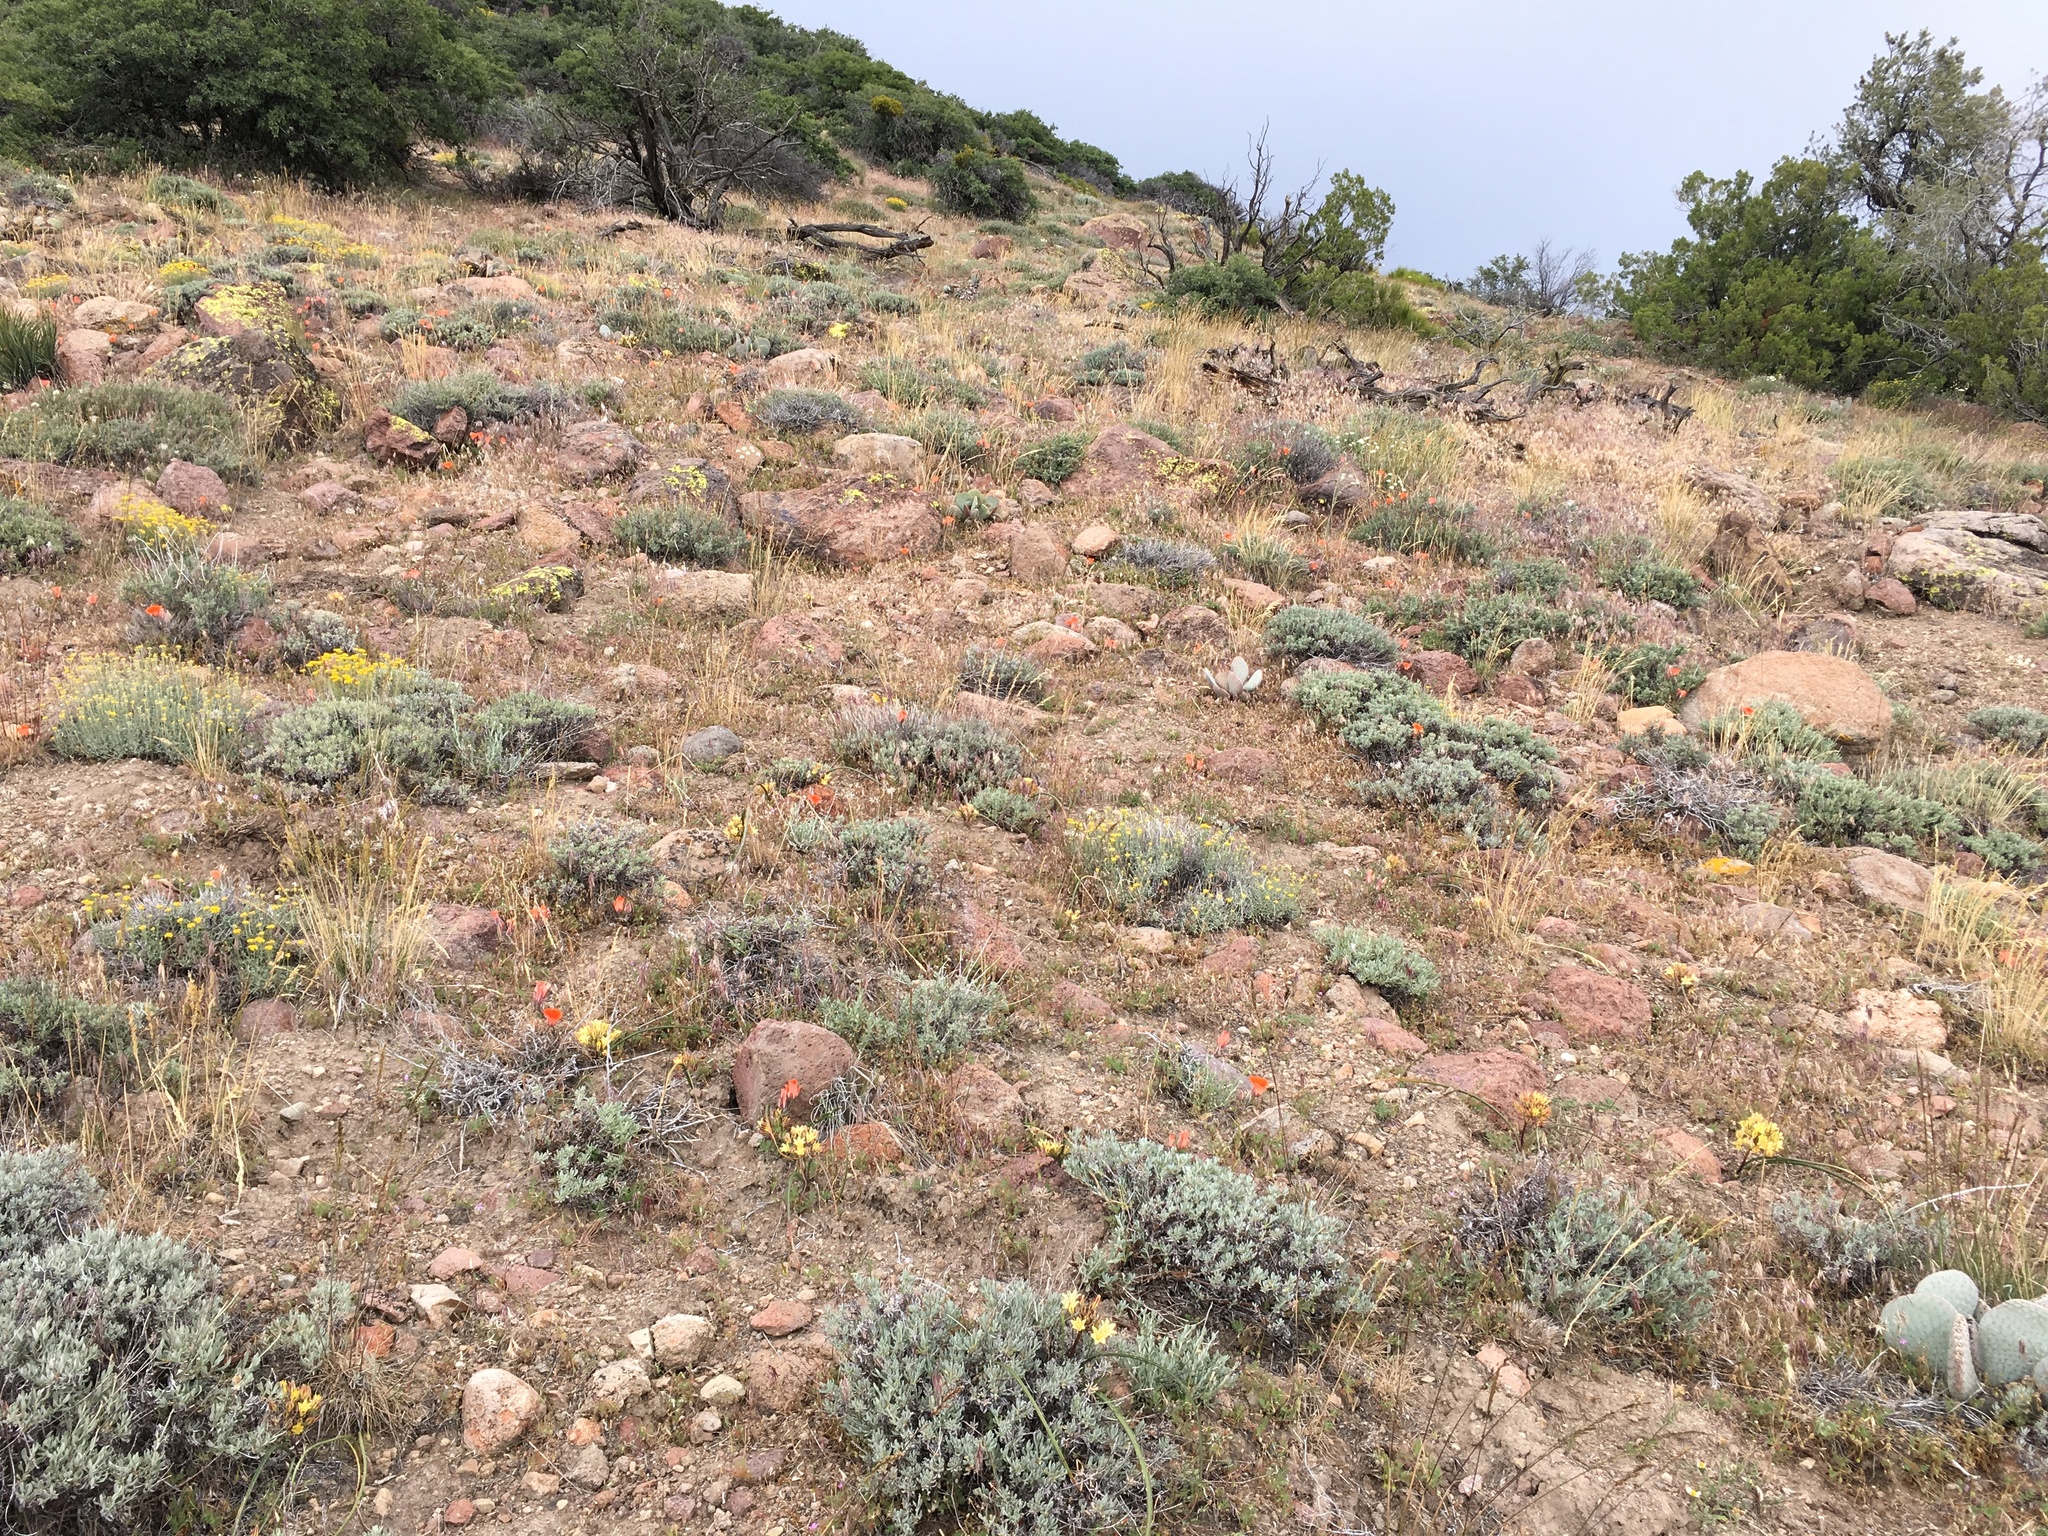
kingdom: Plantae
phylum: Tracheophyta
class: Liliopsida
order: Asparagales
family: Asparagaceae
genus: Triteleia
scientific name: Triteleia piutensis
